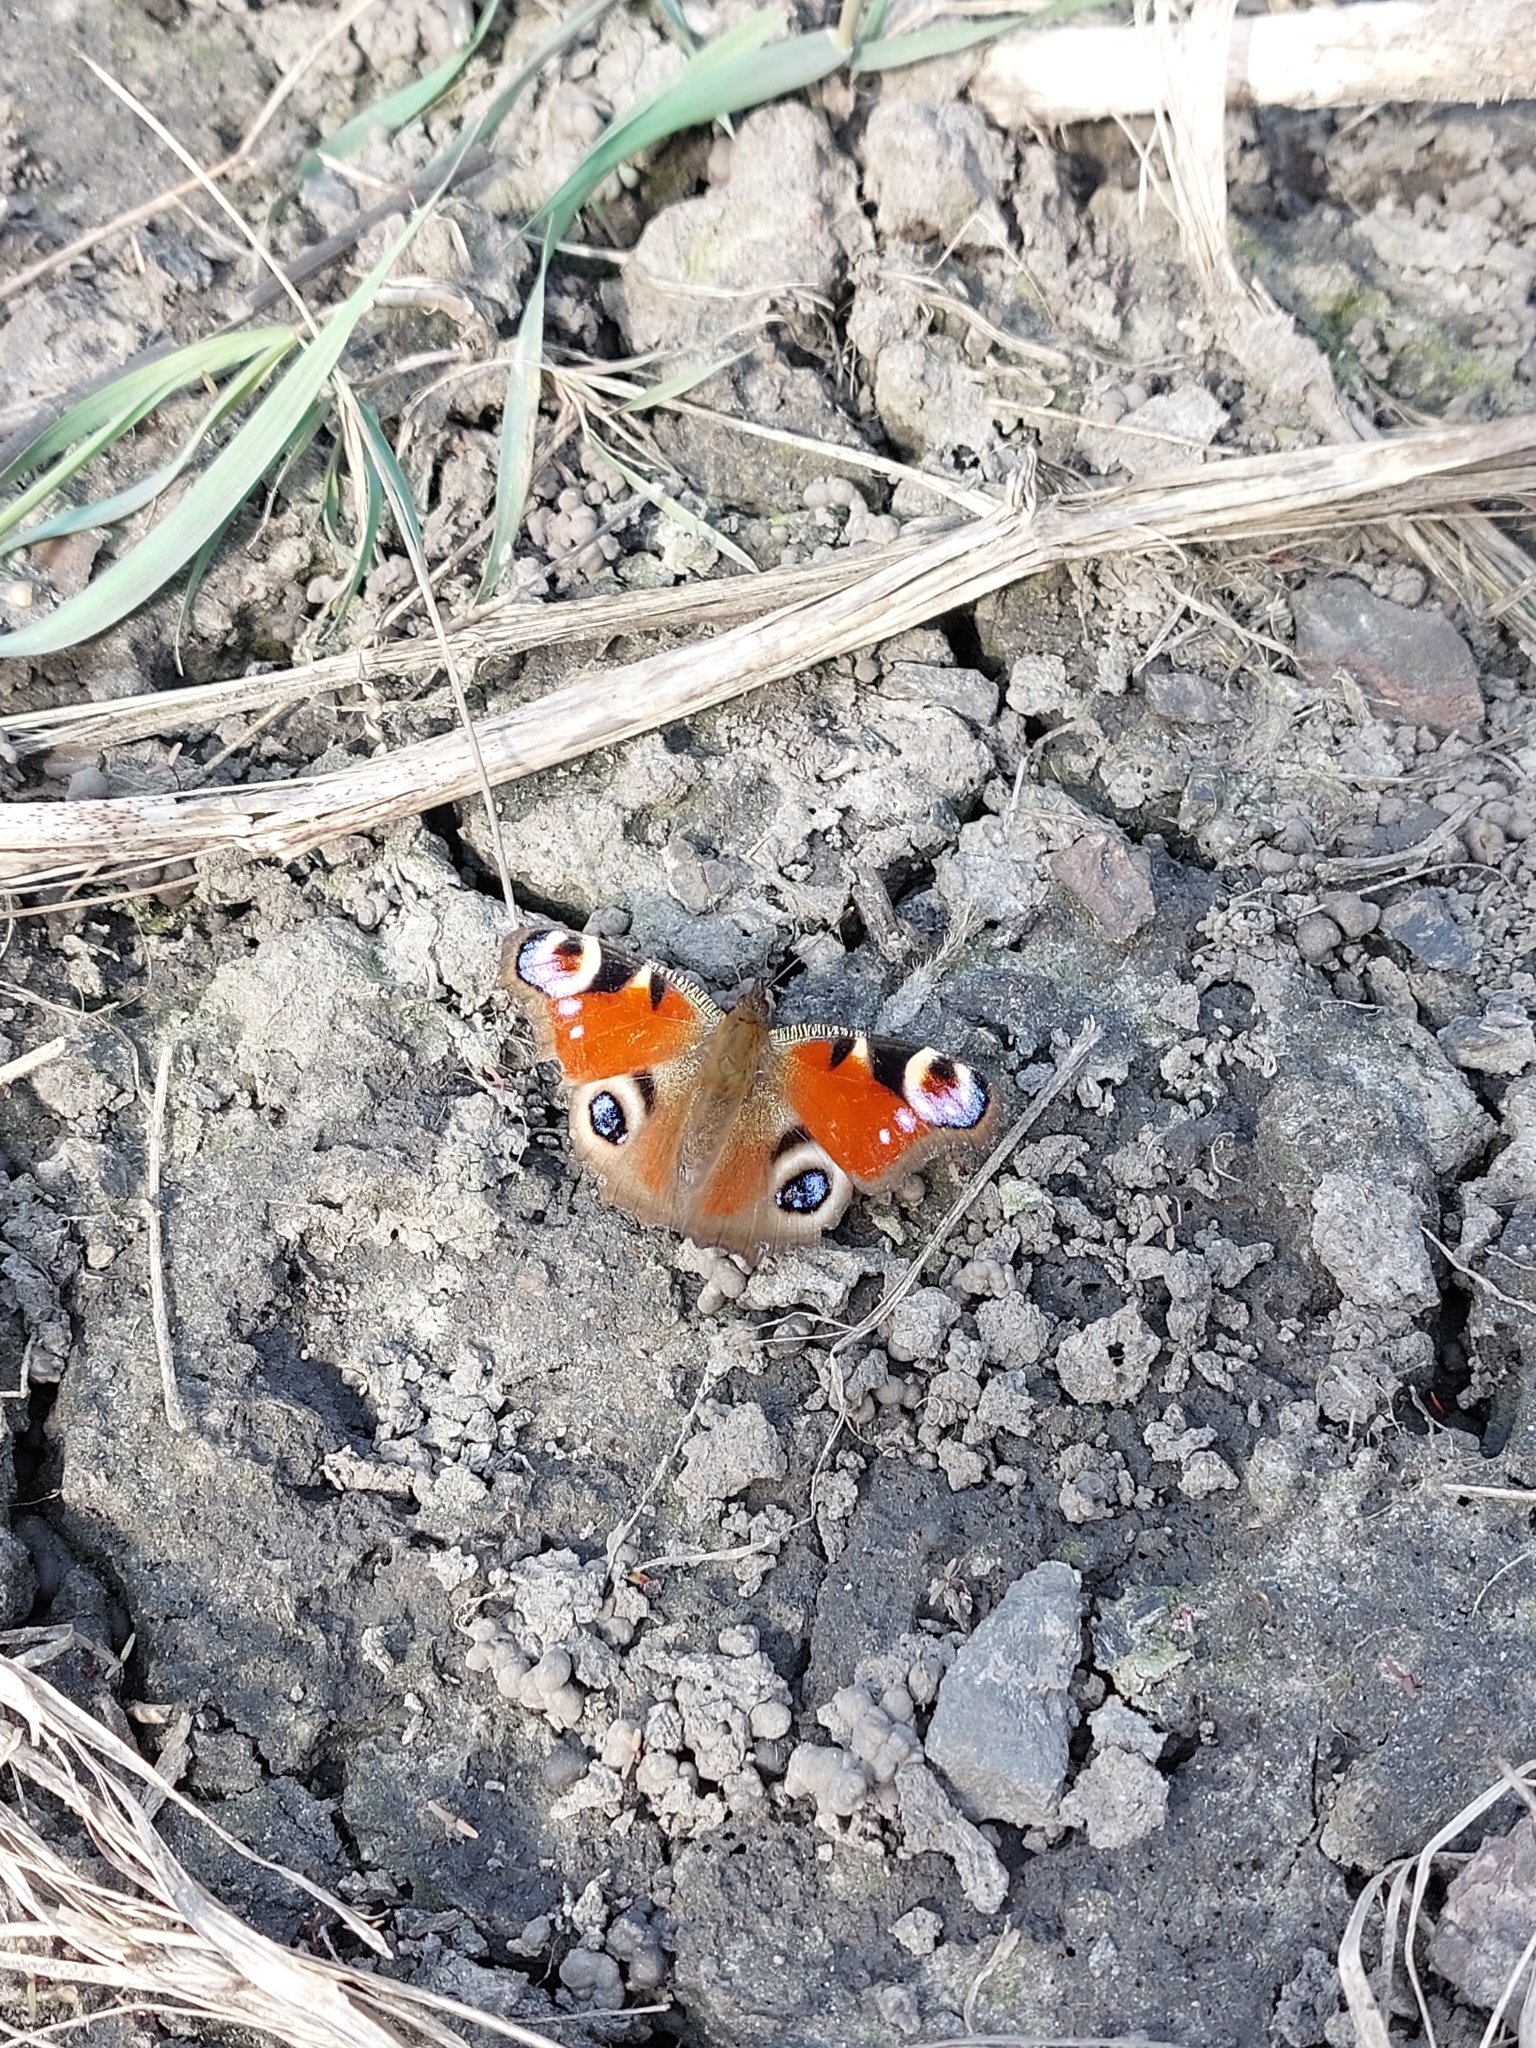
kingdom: Animalia
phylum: Arthropoda
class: Insecta
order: Lepidoptera
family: Nymphalidae
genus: Aglais
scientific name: Aglais io
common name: Peacock
